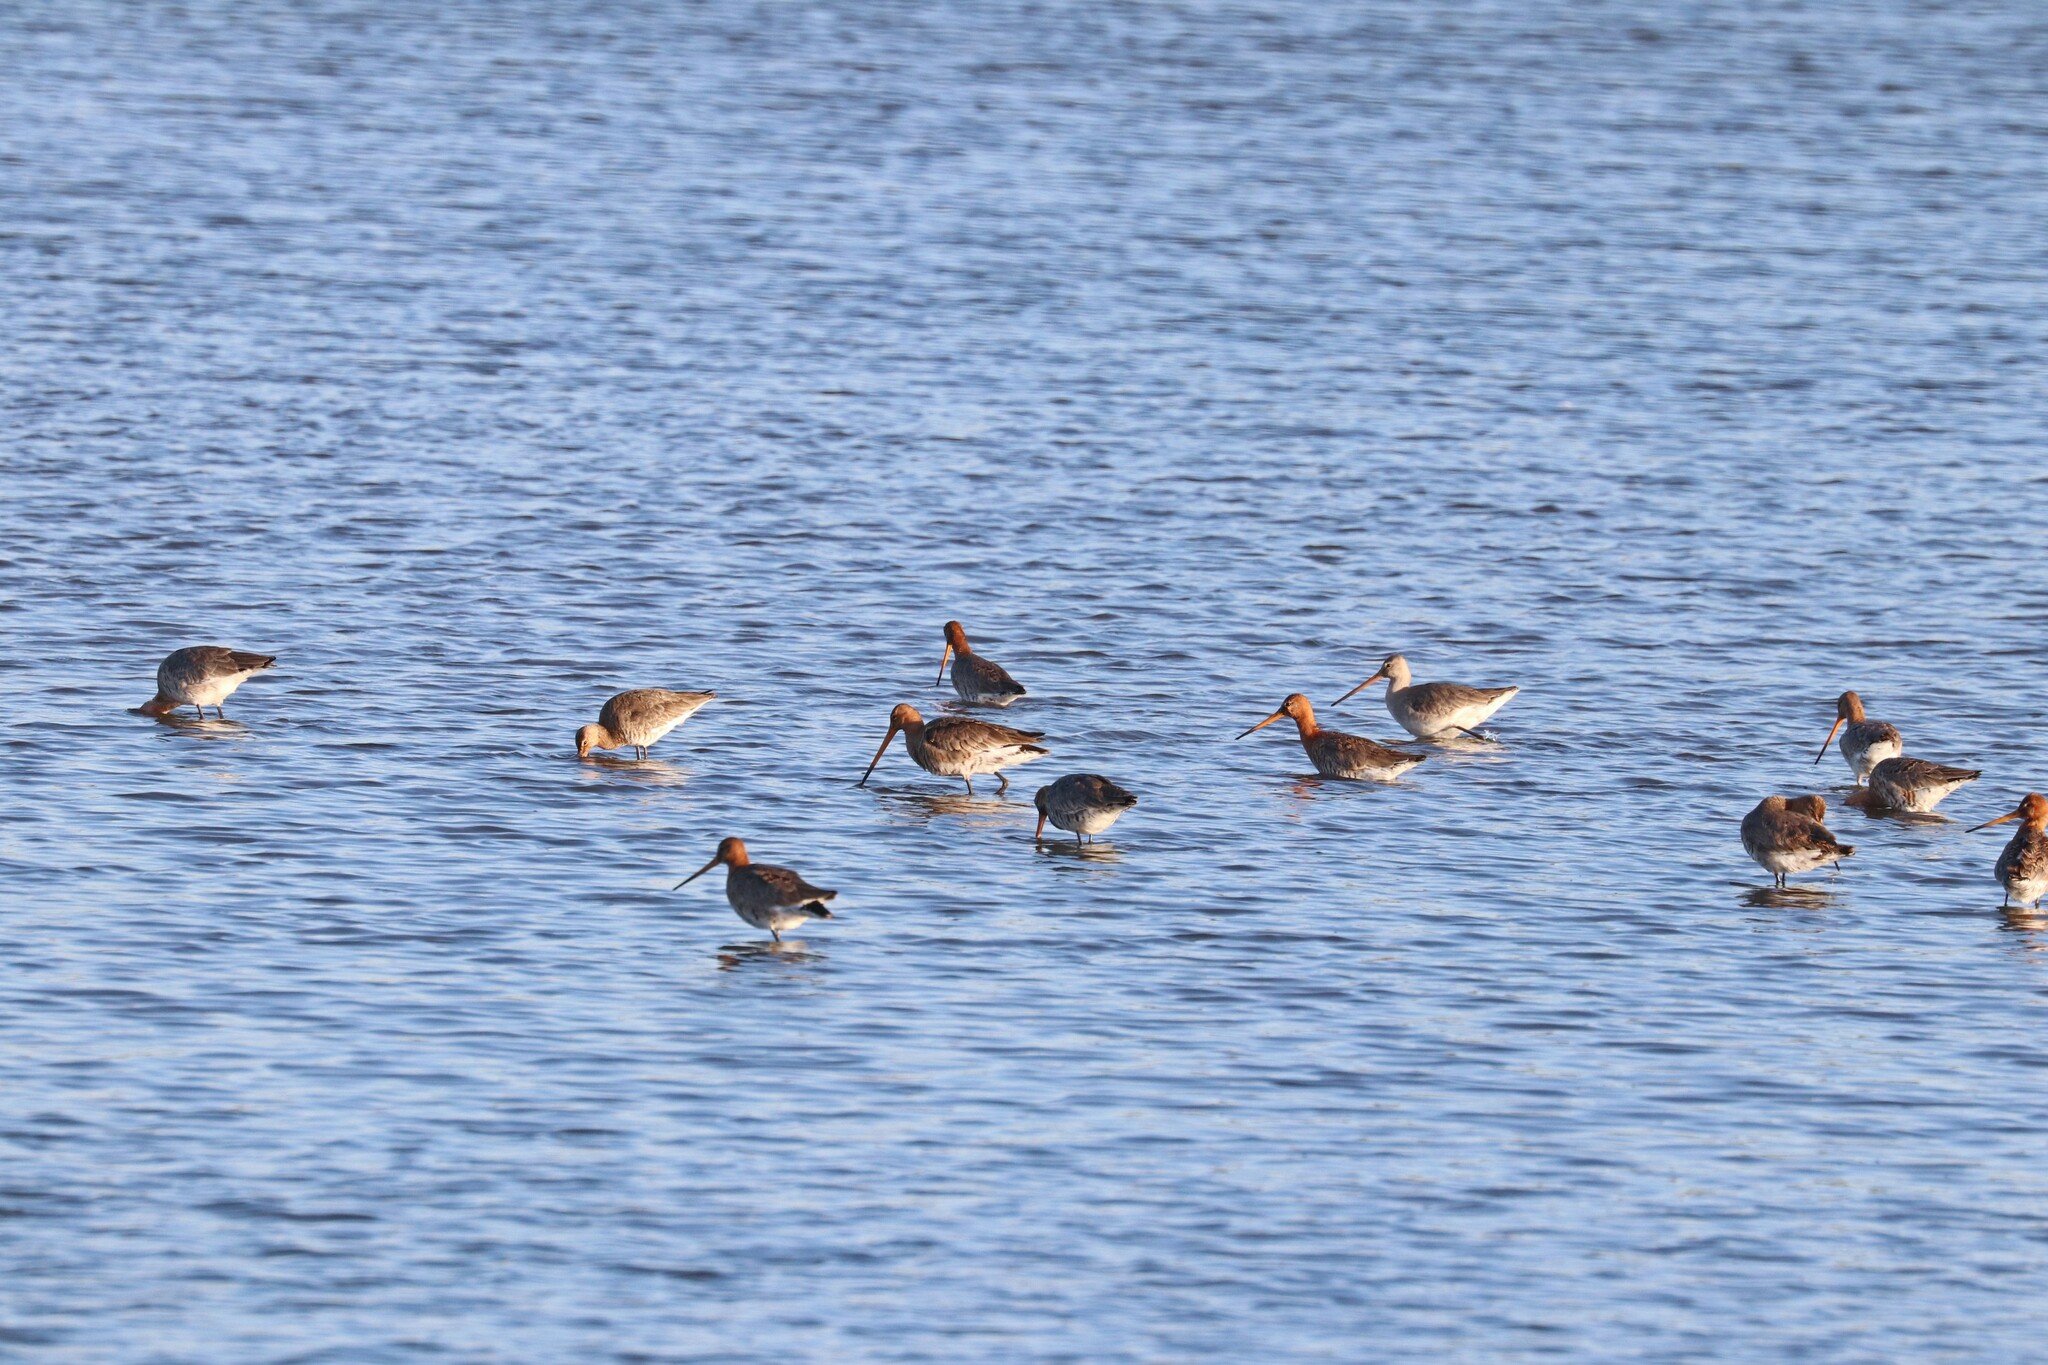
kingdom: Animalia
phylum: Chordata
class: Aves
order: Charadriiformes
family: Scolopacidae
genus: Limosa
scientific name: Limosa limosa
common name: Black-tailed godwit
